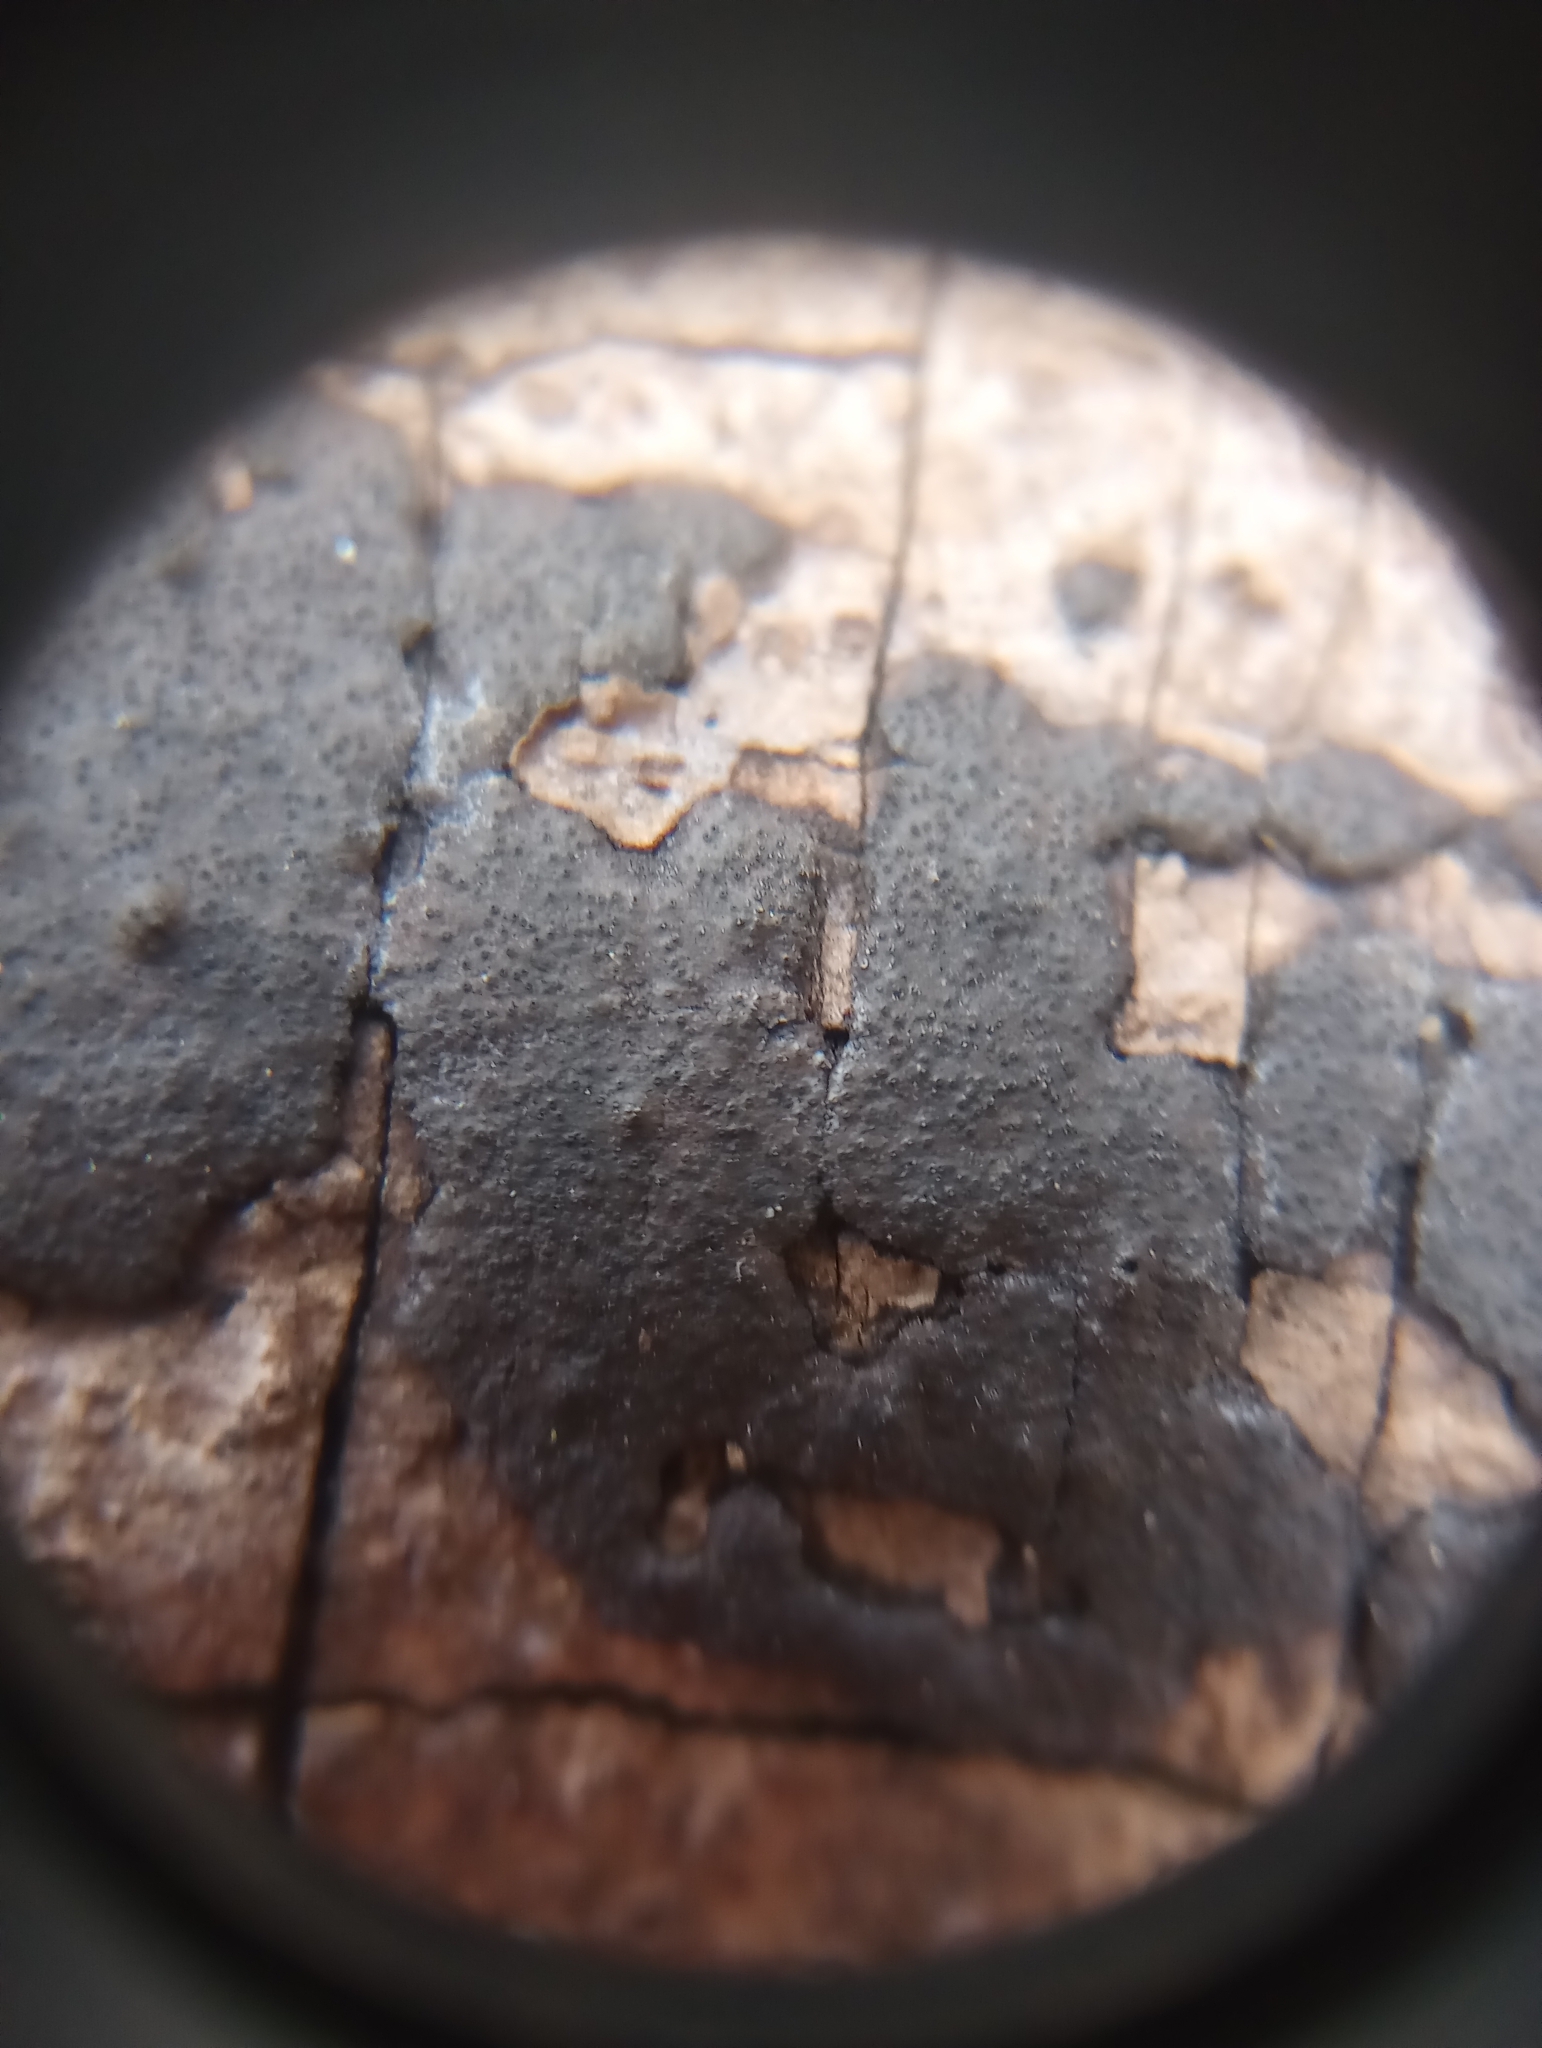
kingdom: Fungi
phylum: Ascomycota
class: Sordariomycetes
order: Xylariales
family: Graphostromataceae
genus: Graphostroma
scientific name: Graphostroma platystomum
